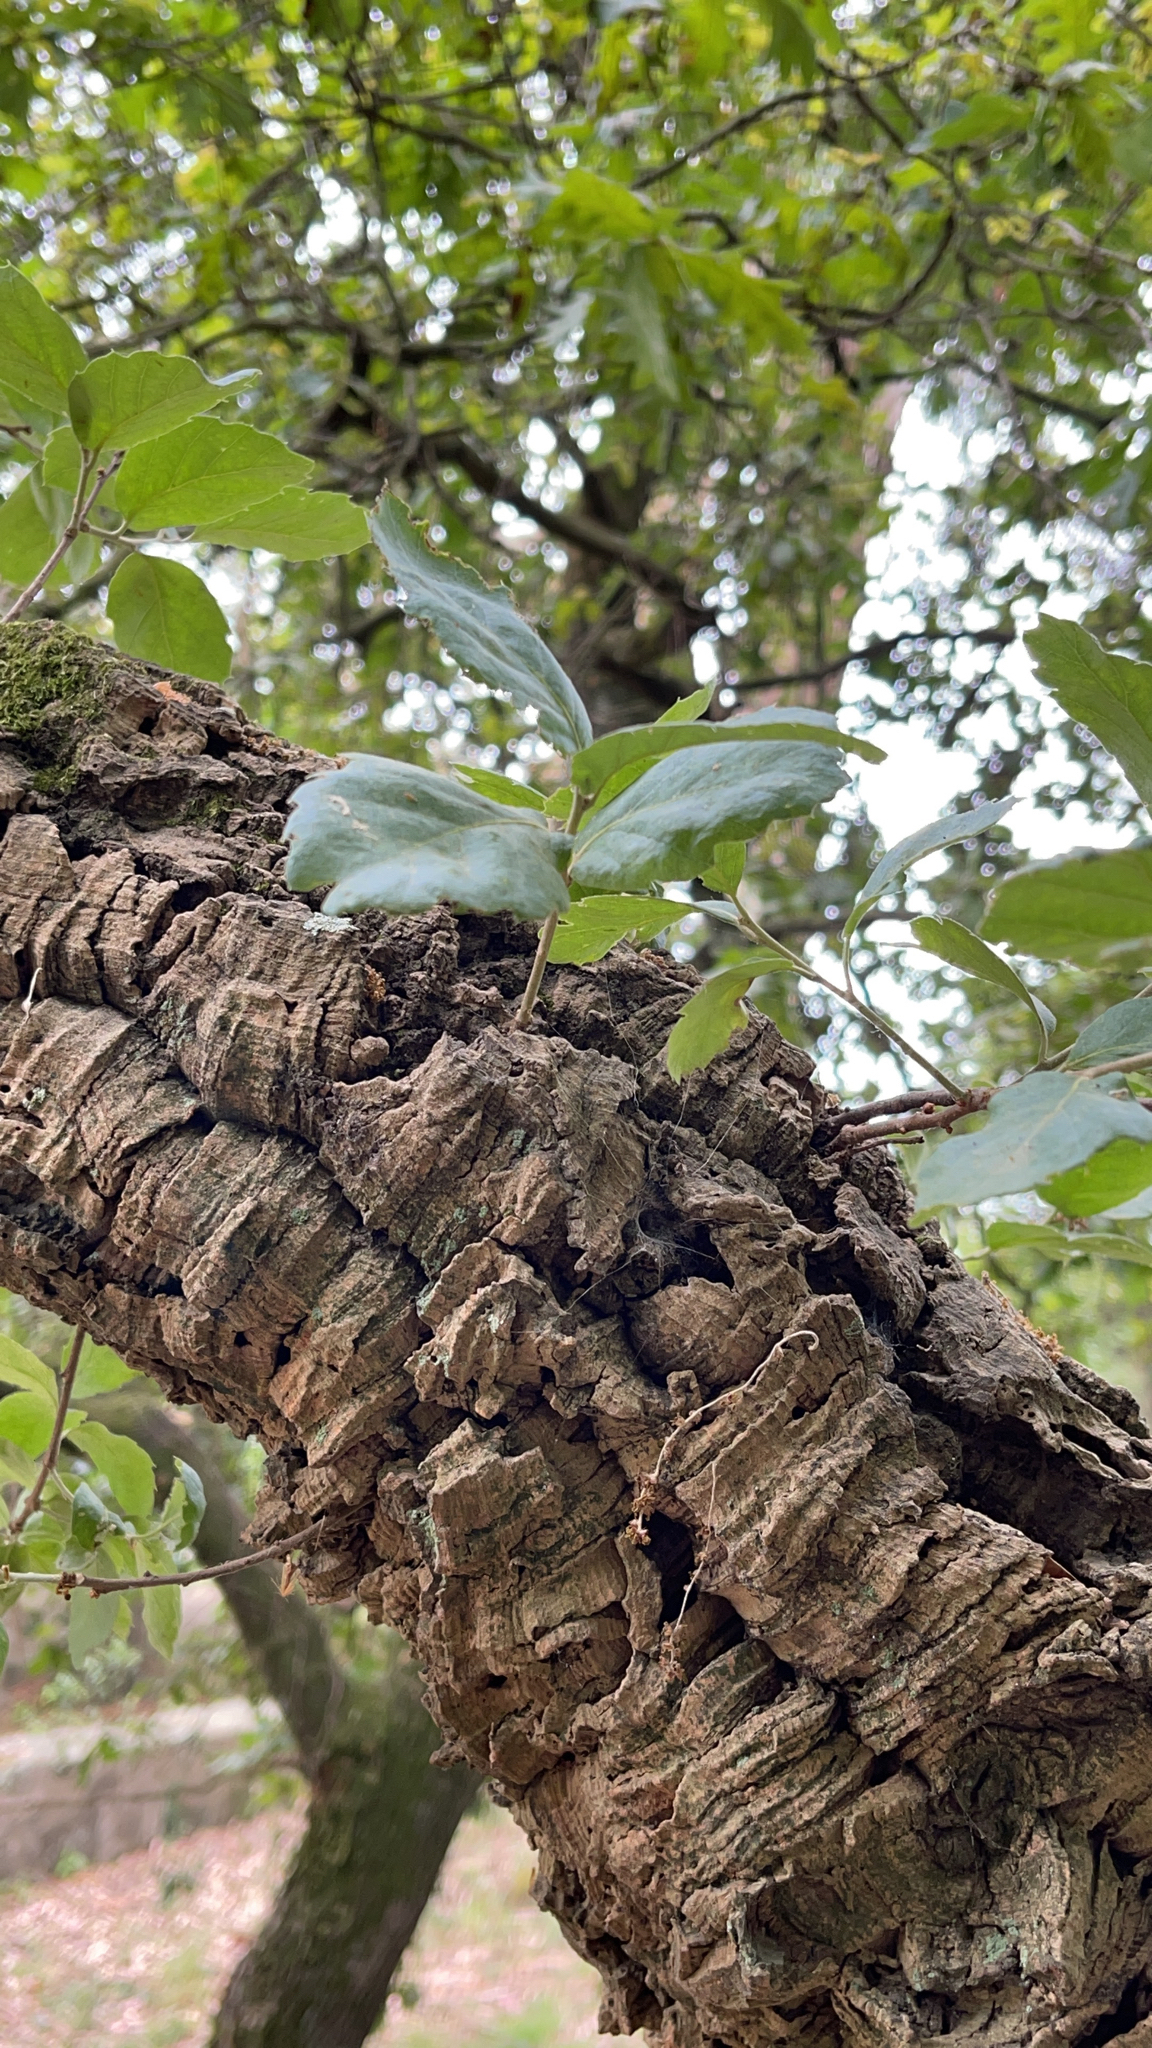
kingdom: Plantae
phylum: Tracheophyta
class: Magnoliopsida
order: Fagales
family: Fagaceae
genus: Quercus
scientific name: Quercus suber
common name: Cork oak
